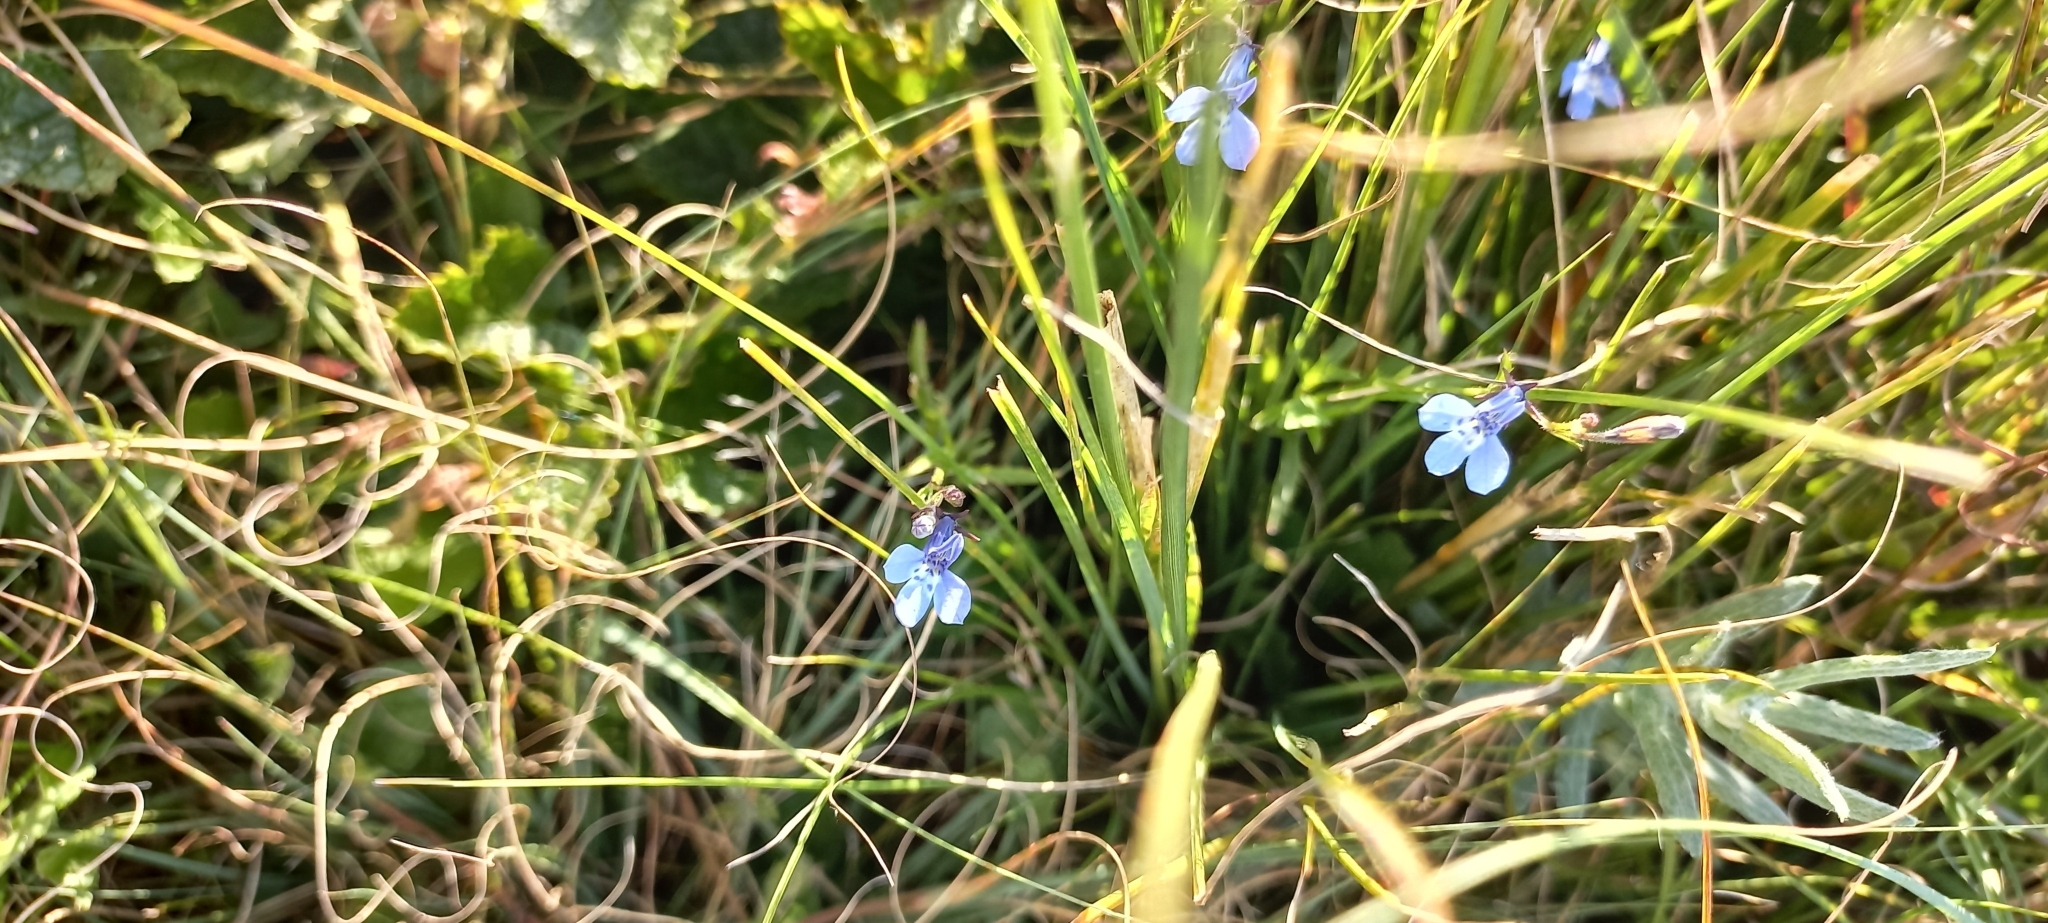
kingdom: Plantae
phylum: Tracheophyta
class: Magnoliopsida
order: Asterales
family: Campanulaceae
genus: Lobelia
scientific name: Lobelia flaccida
